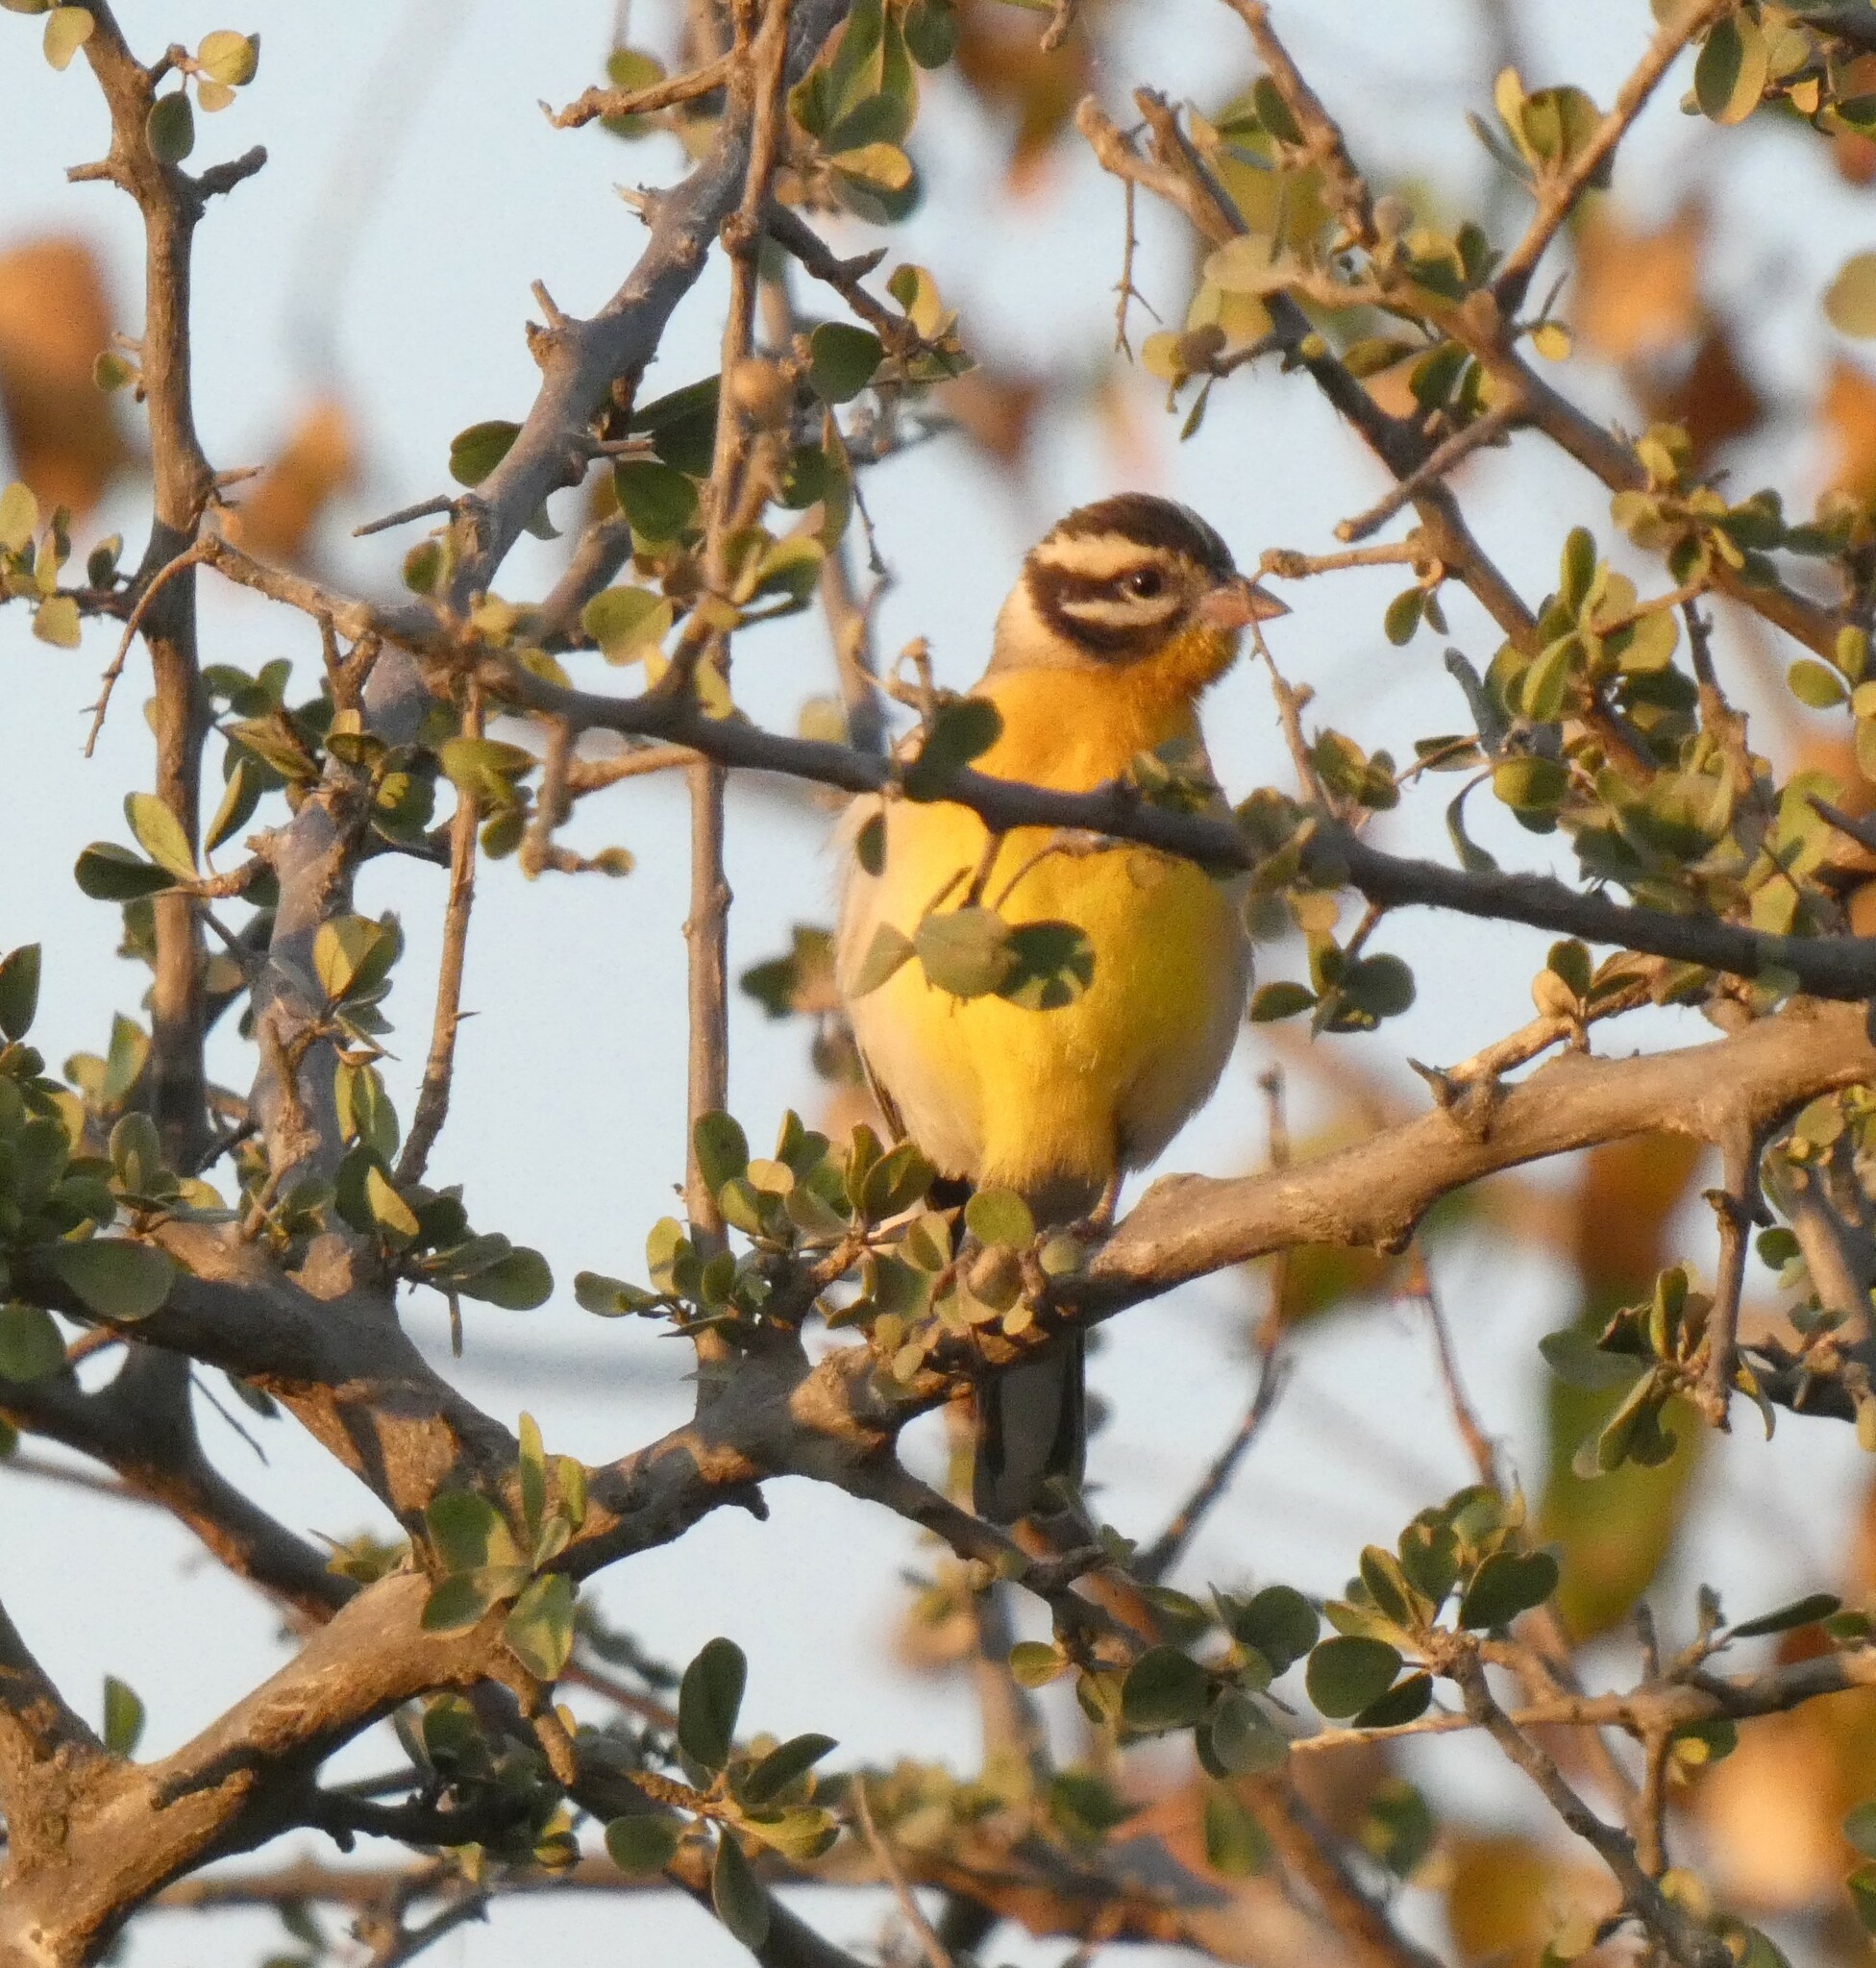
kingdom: Animalia
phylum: Chordata
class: Aves
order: Passeriformes
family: Emberizidae
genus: Emberiza
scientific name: Emberiza flaviventris
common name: Golden-breasted bunting
